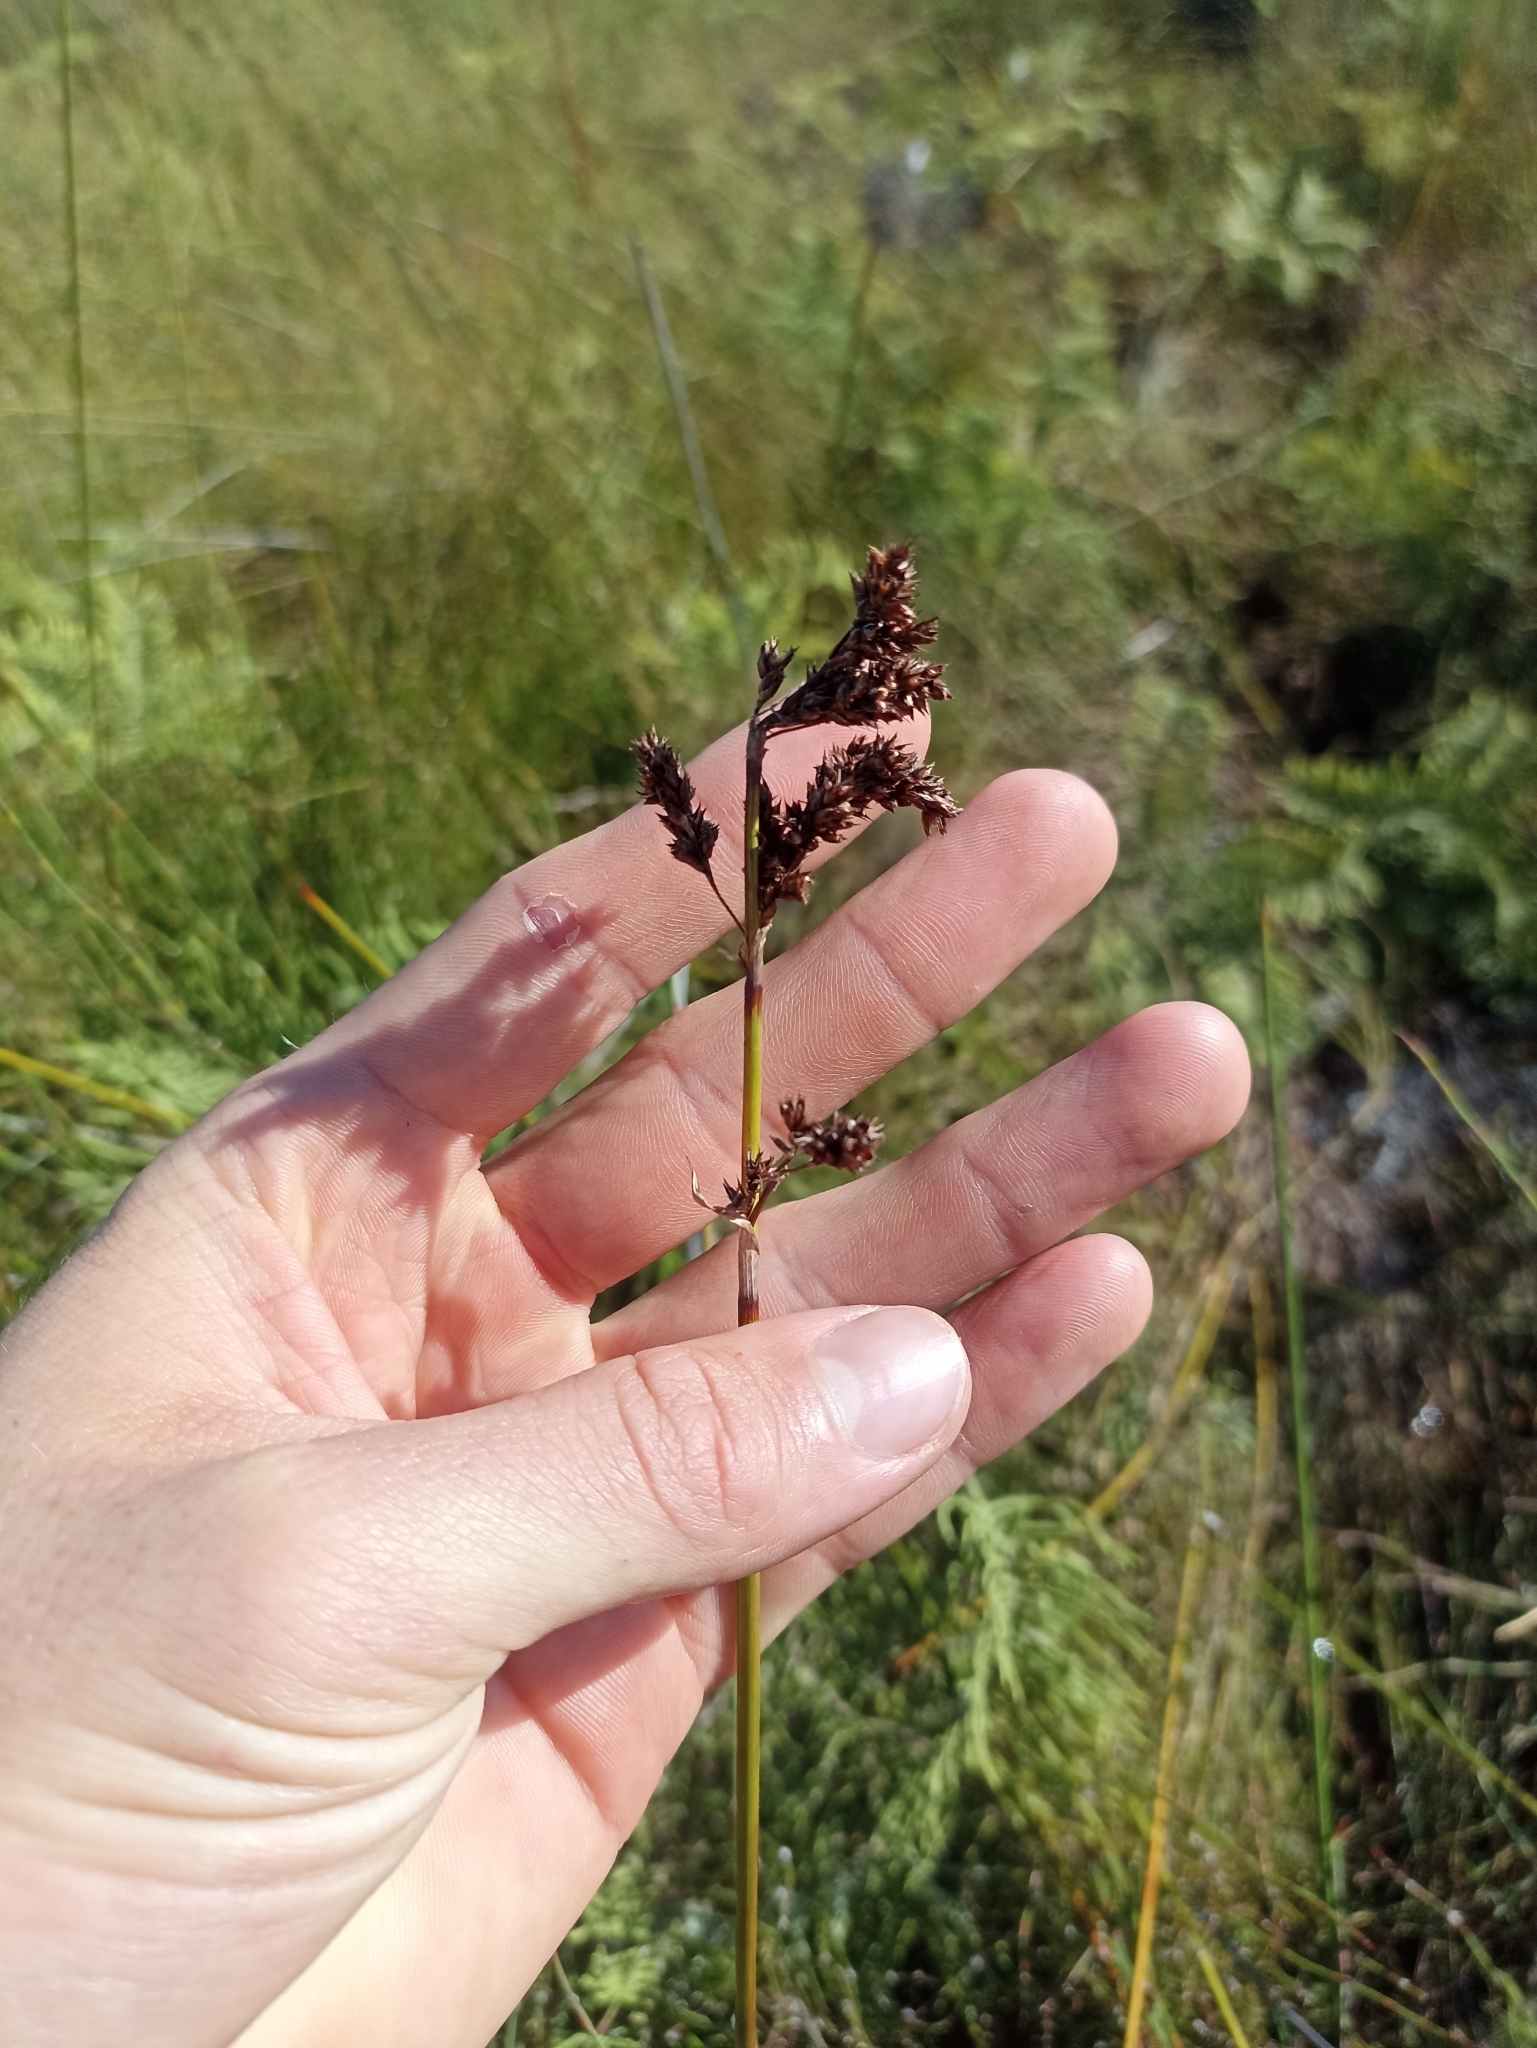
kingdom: Plantae
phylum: Tracheophyta
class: Liliopsida
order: Poales
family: Cyperaceae
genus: Machaerina
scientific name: Machaerina teretifolia
